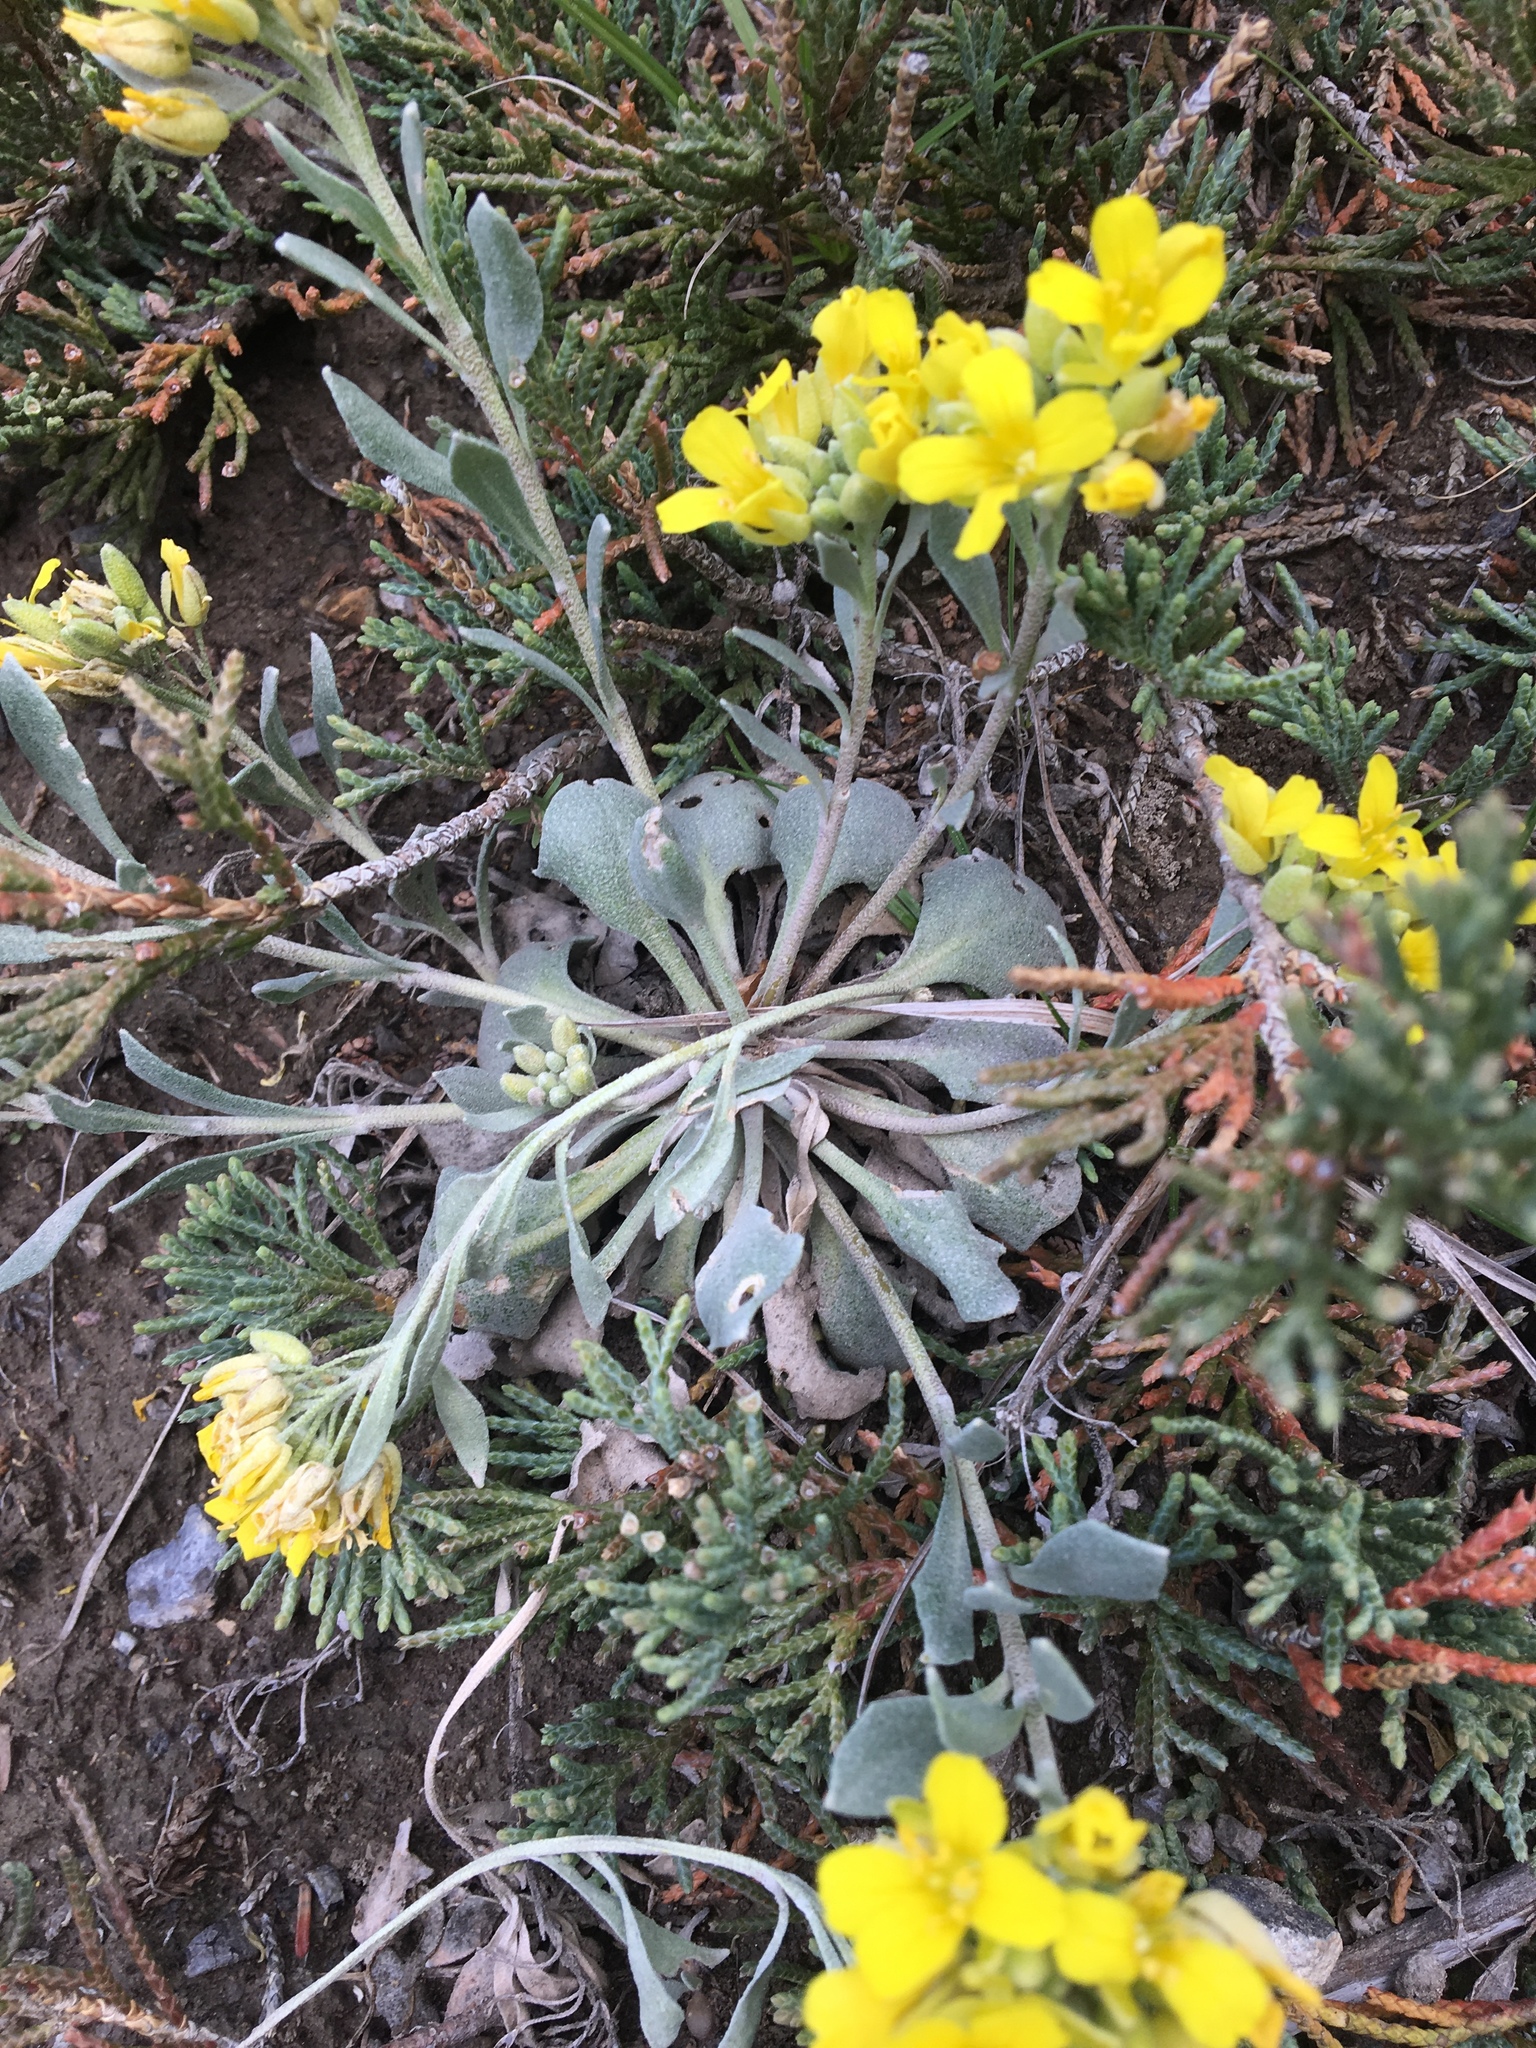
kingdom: Plantae
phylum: Tracheophyta
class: Magnoliopsida
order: Brassicales
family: Brassicaceae
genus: Physaria
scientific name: Physaria didymocarpa
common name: Common twinpod
